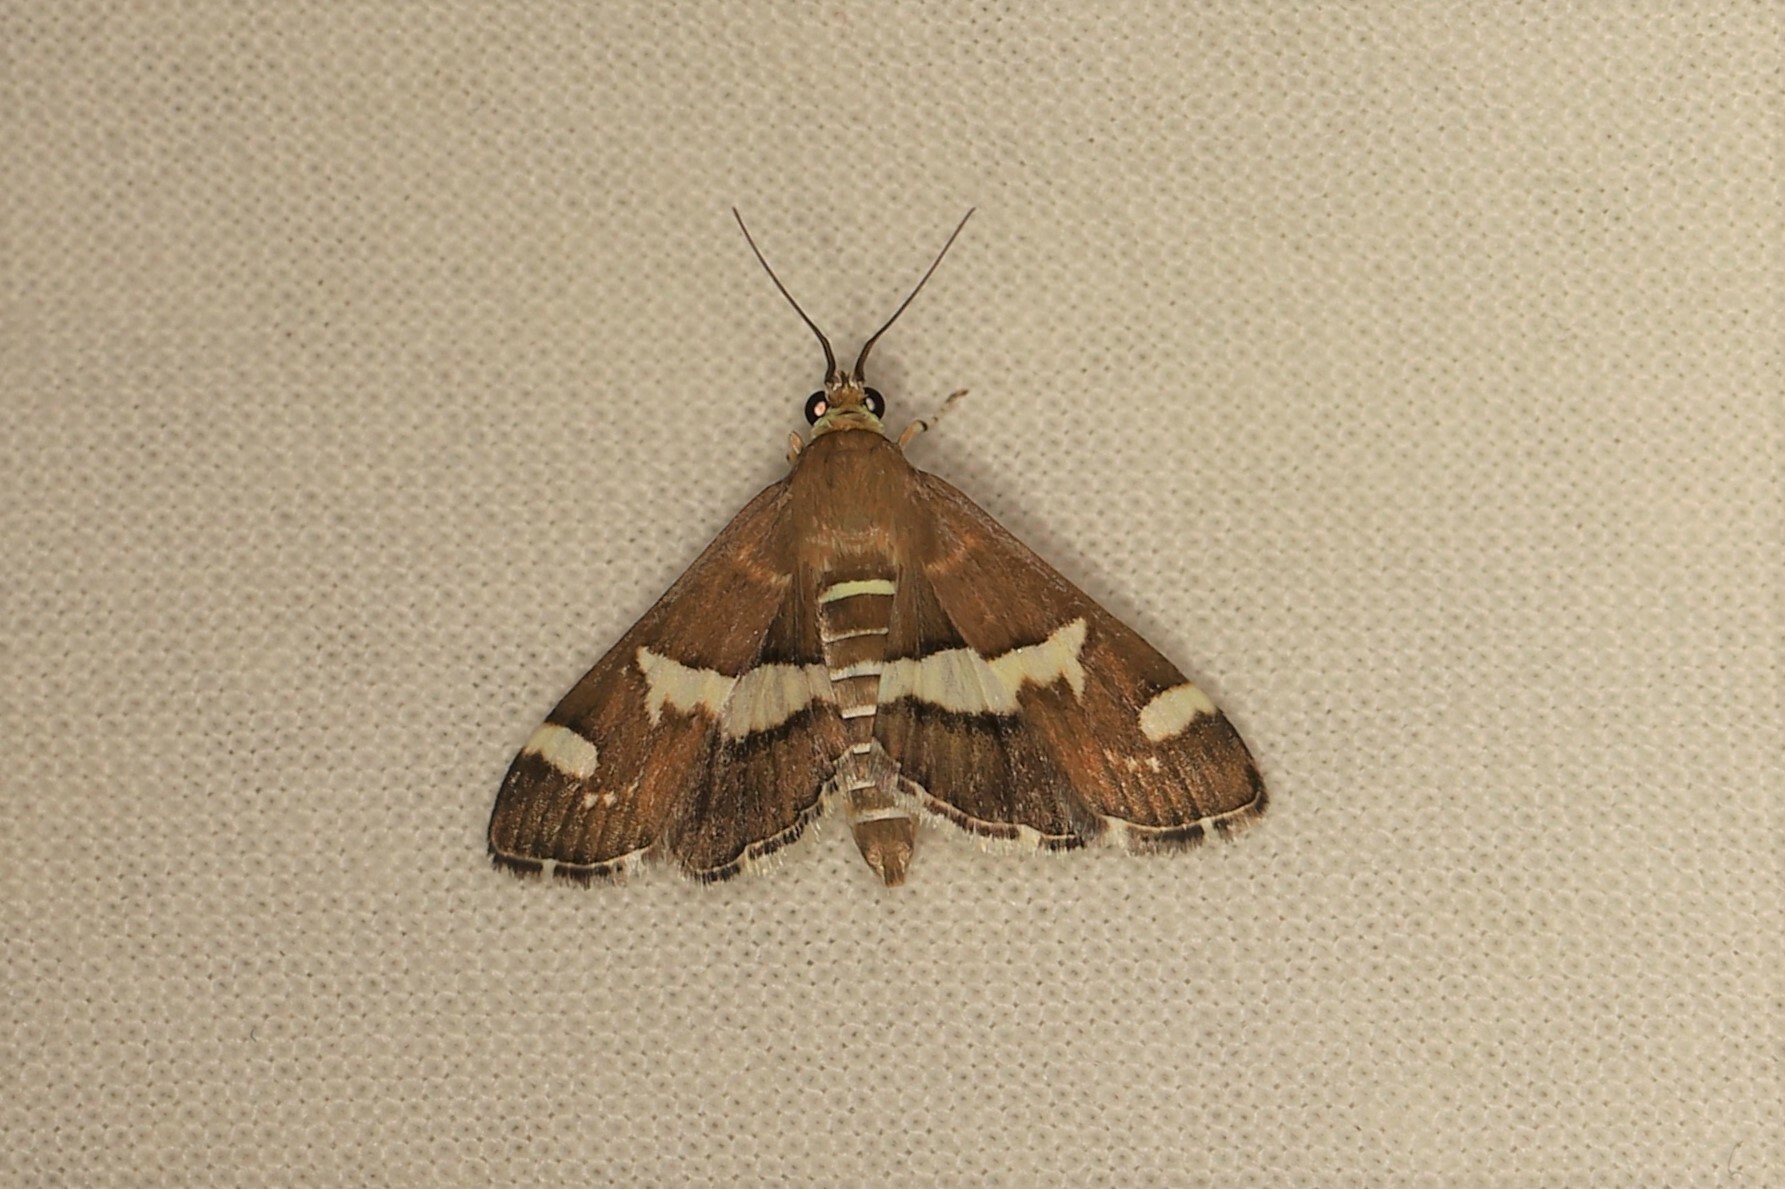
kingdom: Animalia
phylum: Arthropoda
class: Insecta
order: Lepidoptera
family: Crambidae
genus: Spoladea
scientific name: Spoladea recurvalis
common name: Beet webworm moth
